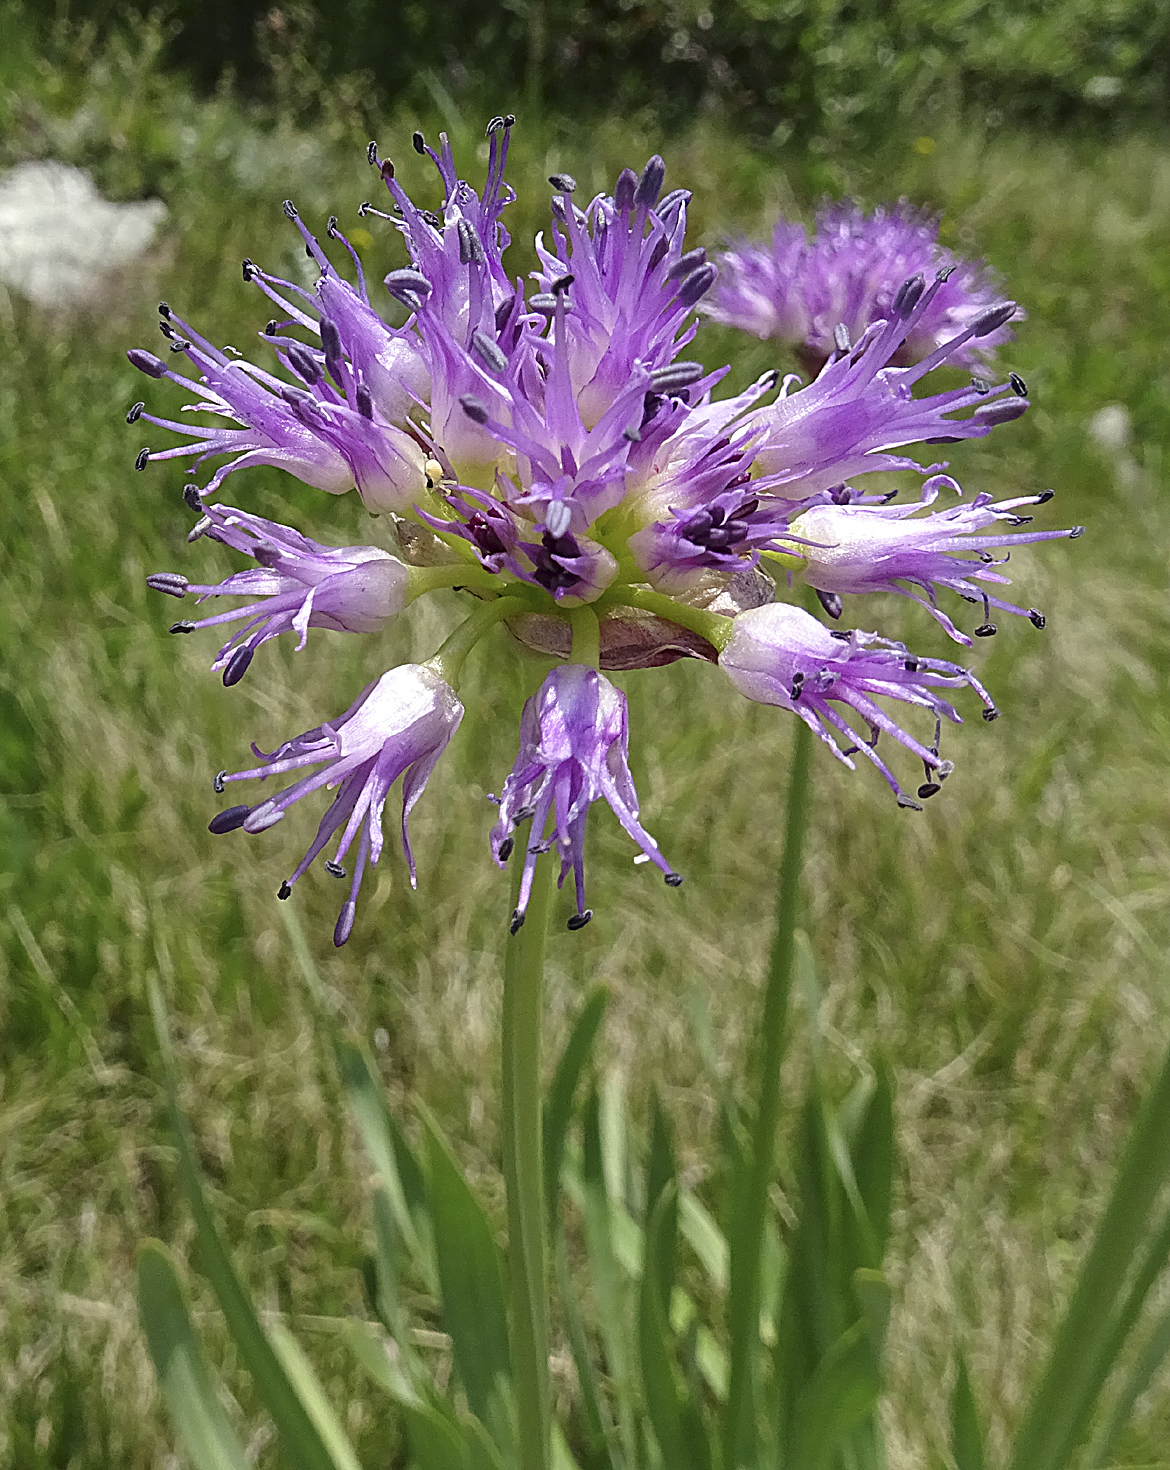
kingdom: Plantae
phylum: Tracheophyta
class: Liliopsida
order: Asparagales
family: Amaryllidaceae
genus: Allium
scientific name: Allium validum
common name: Pacific mountain onion
